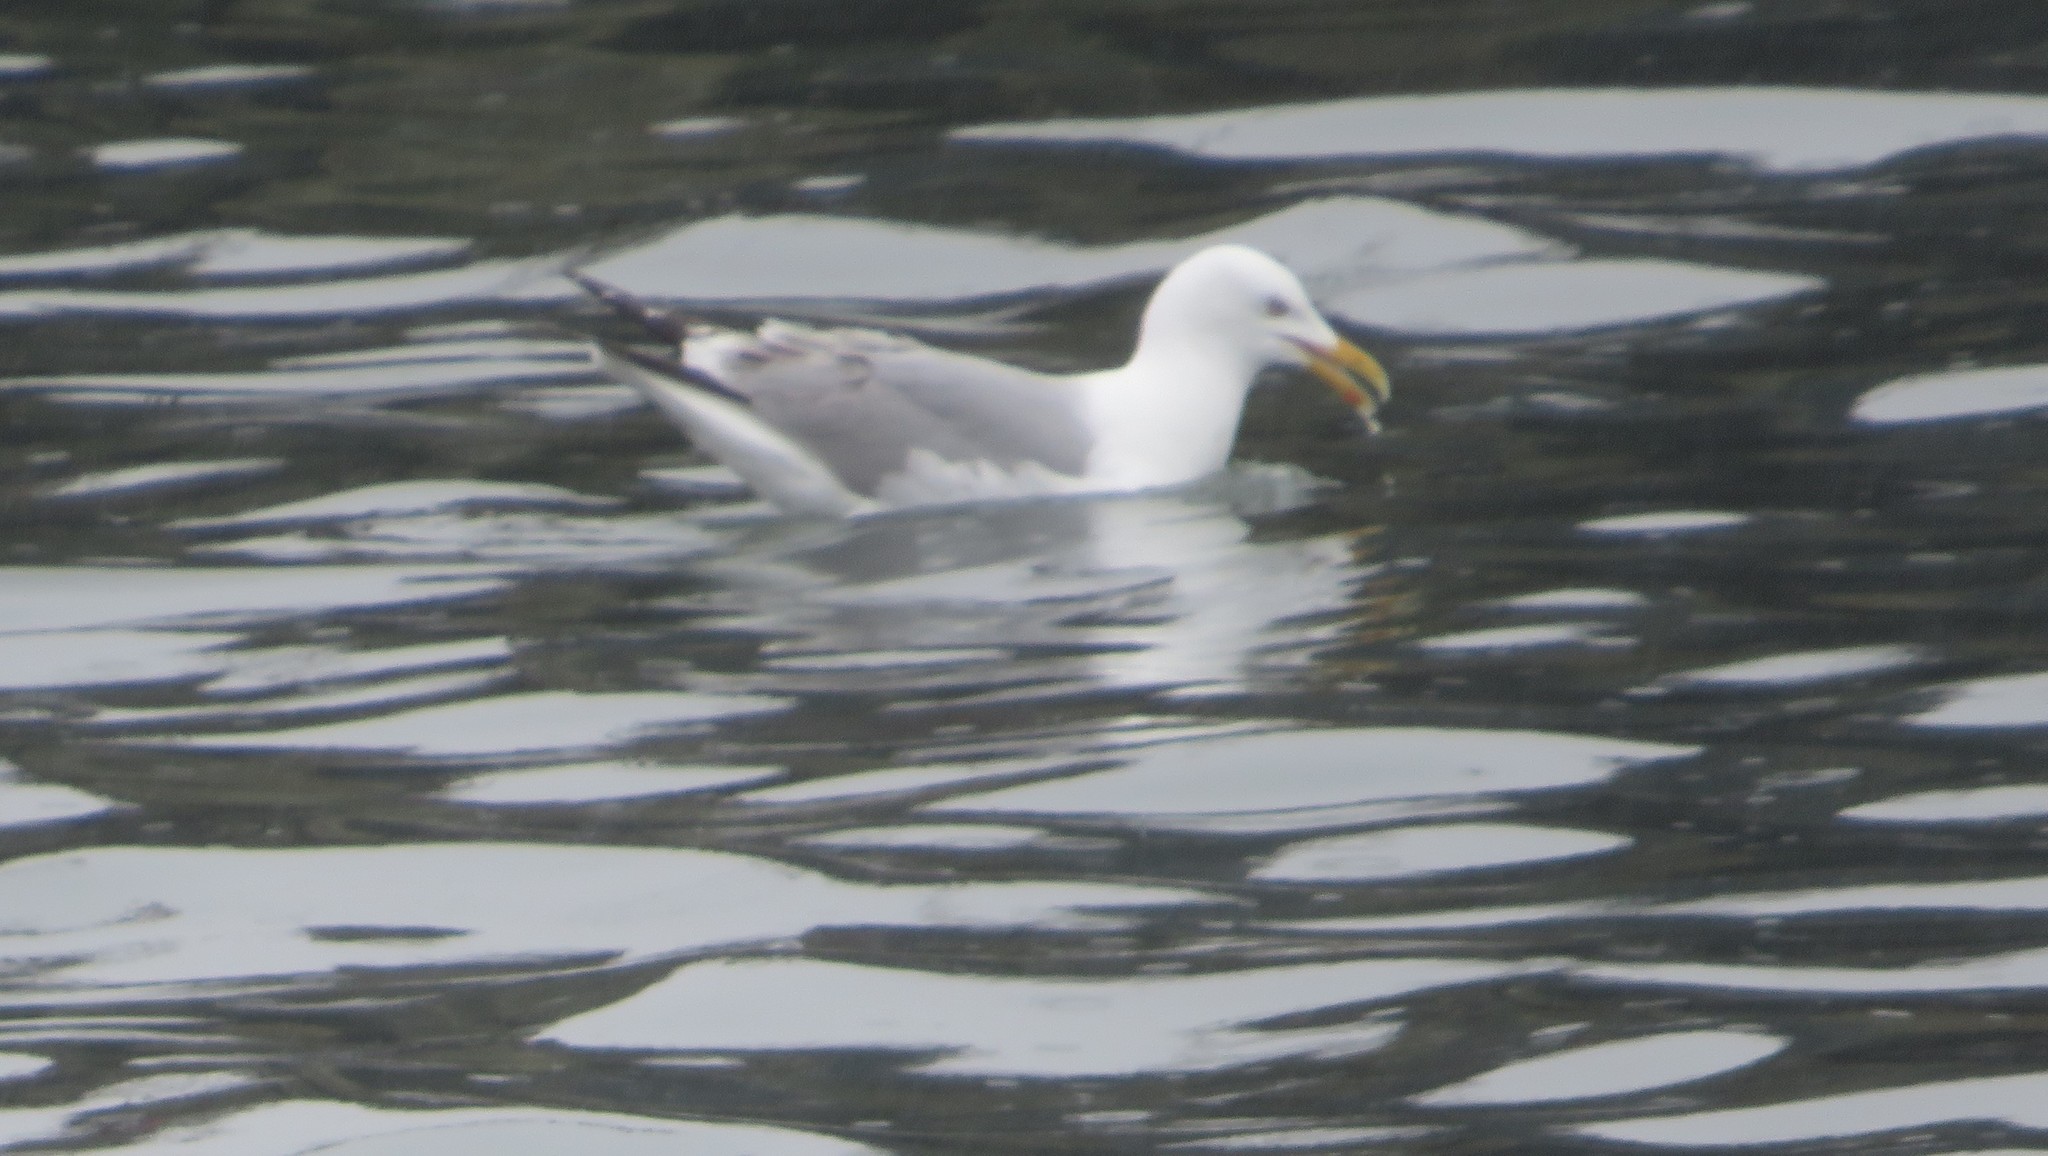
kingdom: Animalia
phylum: Chordata
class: Aves
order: Charadriiformes
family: Laridae
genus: Larus
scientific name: Larus argentatus
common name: Herring gull
